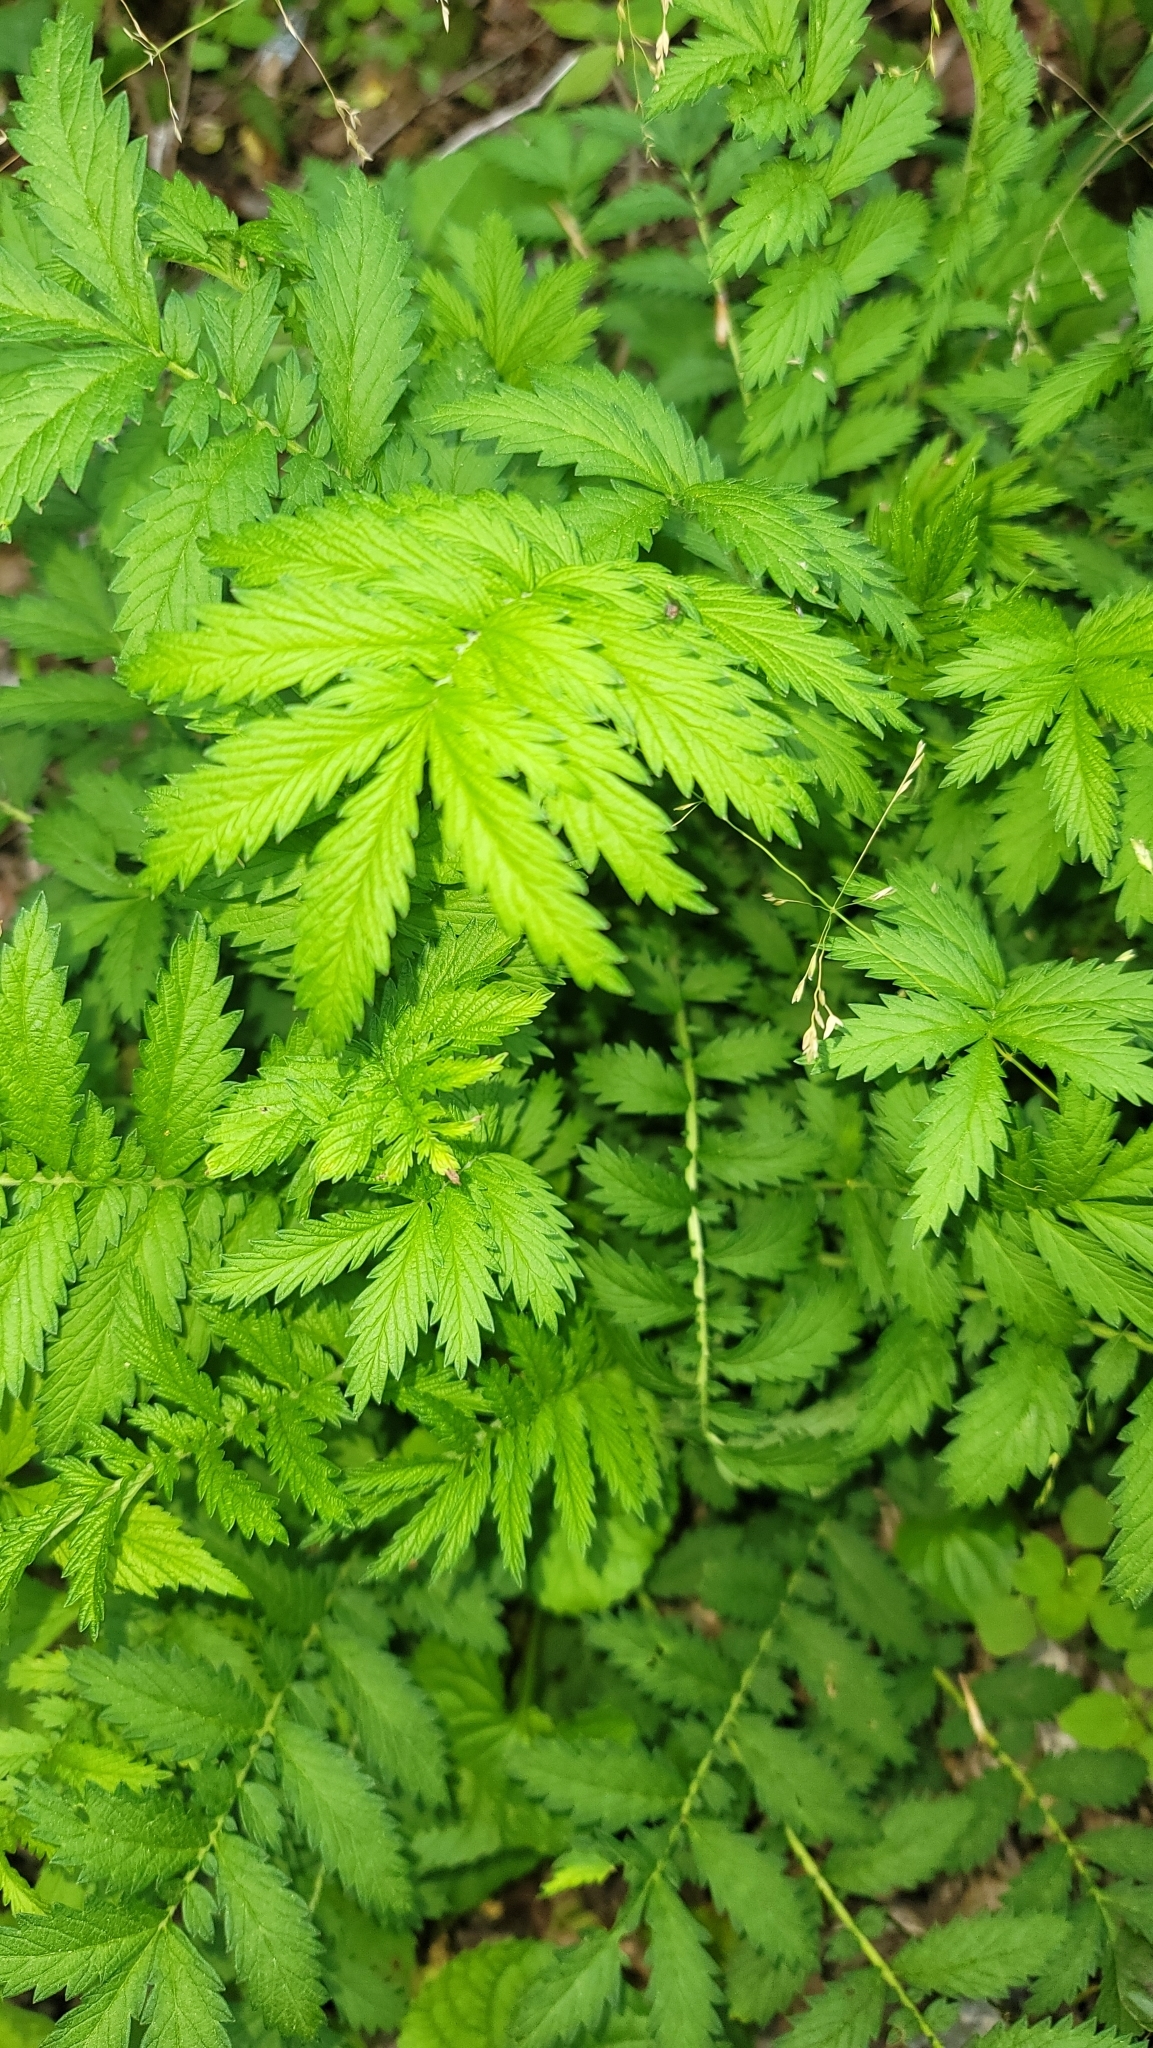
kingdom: Plantae
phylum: Tracheophyta
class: Magnoliopsida
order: Rosales
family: Rosaceae
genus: Agrimonia
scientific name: Agrimonia parviflora
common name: Harvest-lice
